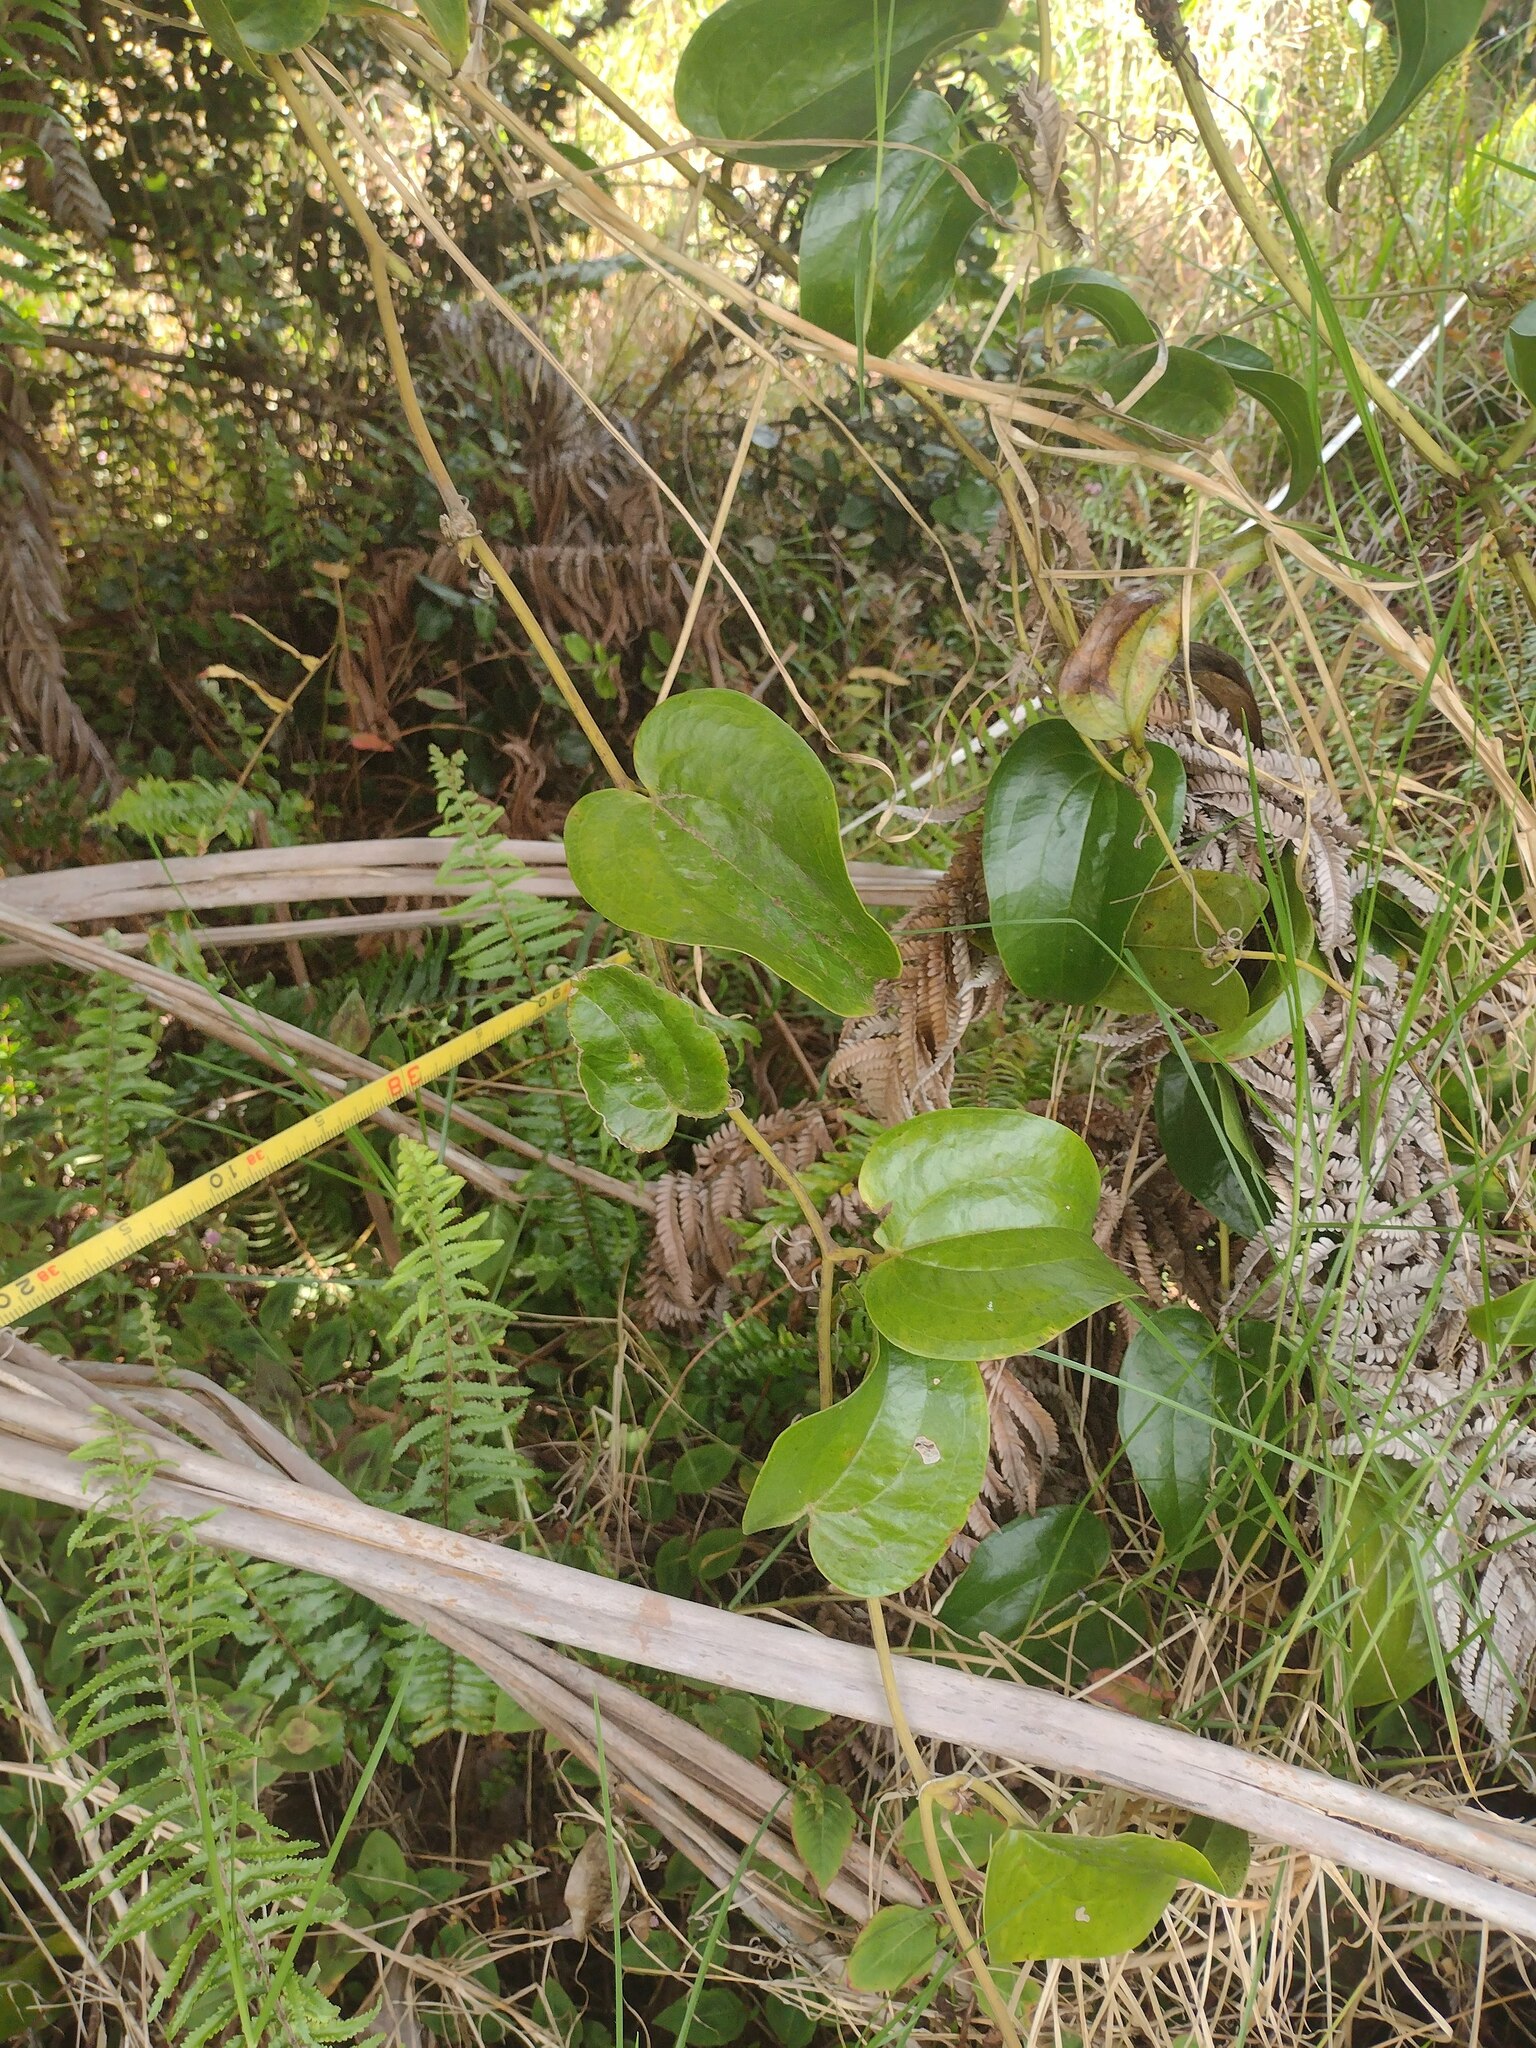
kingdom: Plantae
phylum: Tracheophyta
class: Liliopsida
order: Liliales
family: Smilacaceae
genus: Smilax
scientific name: Smilax melastomifolia
